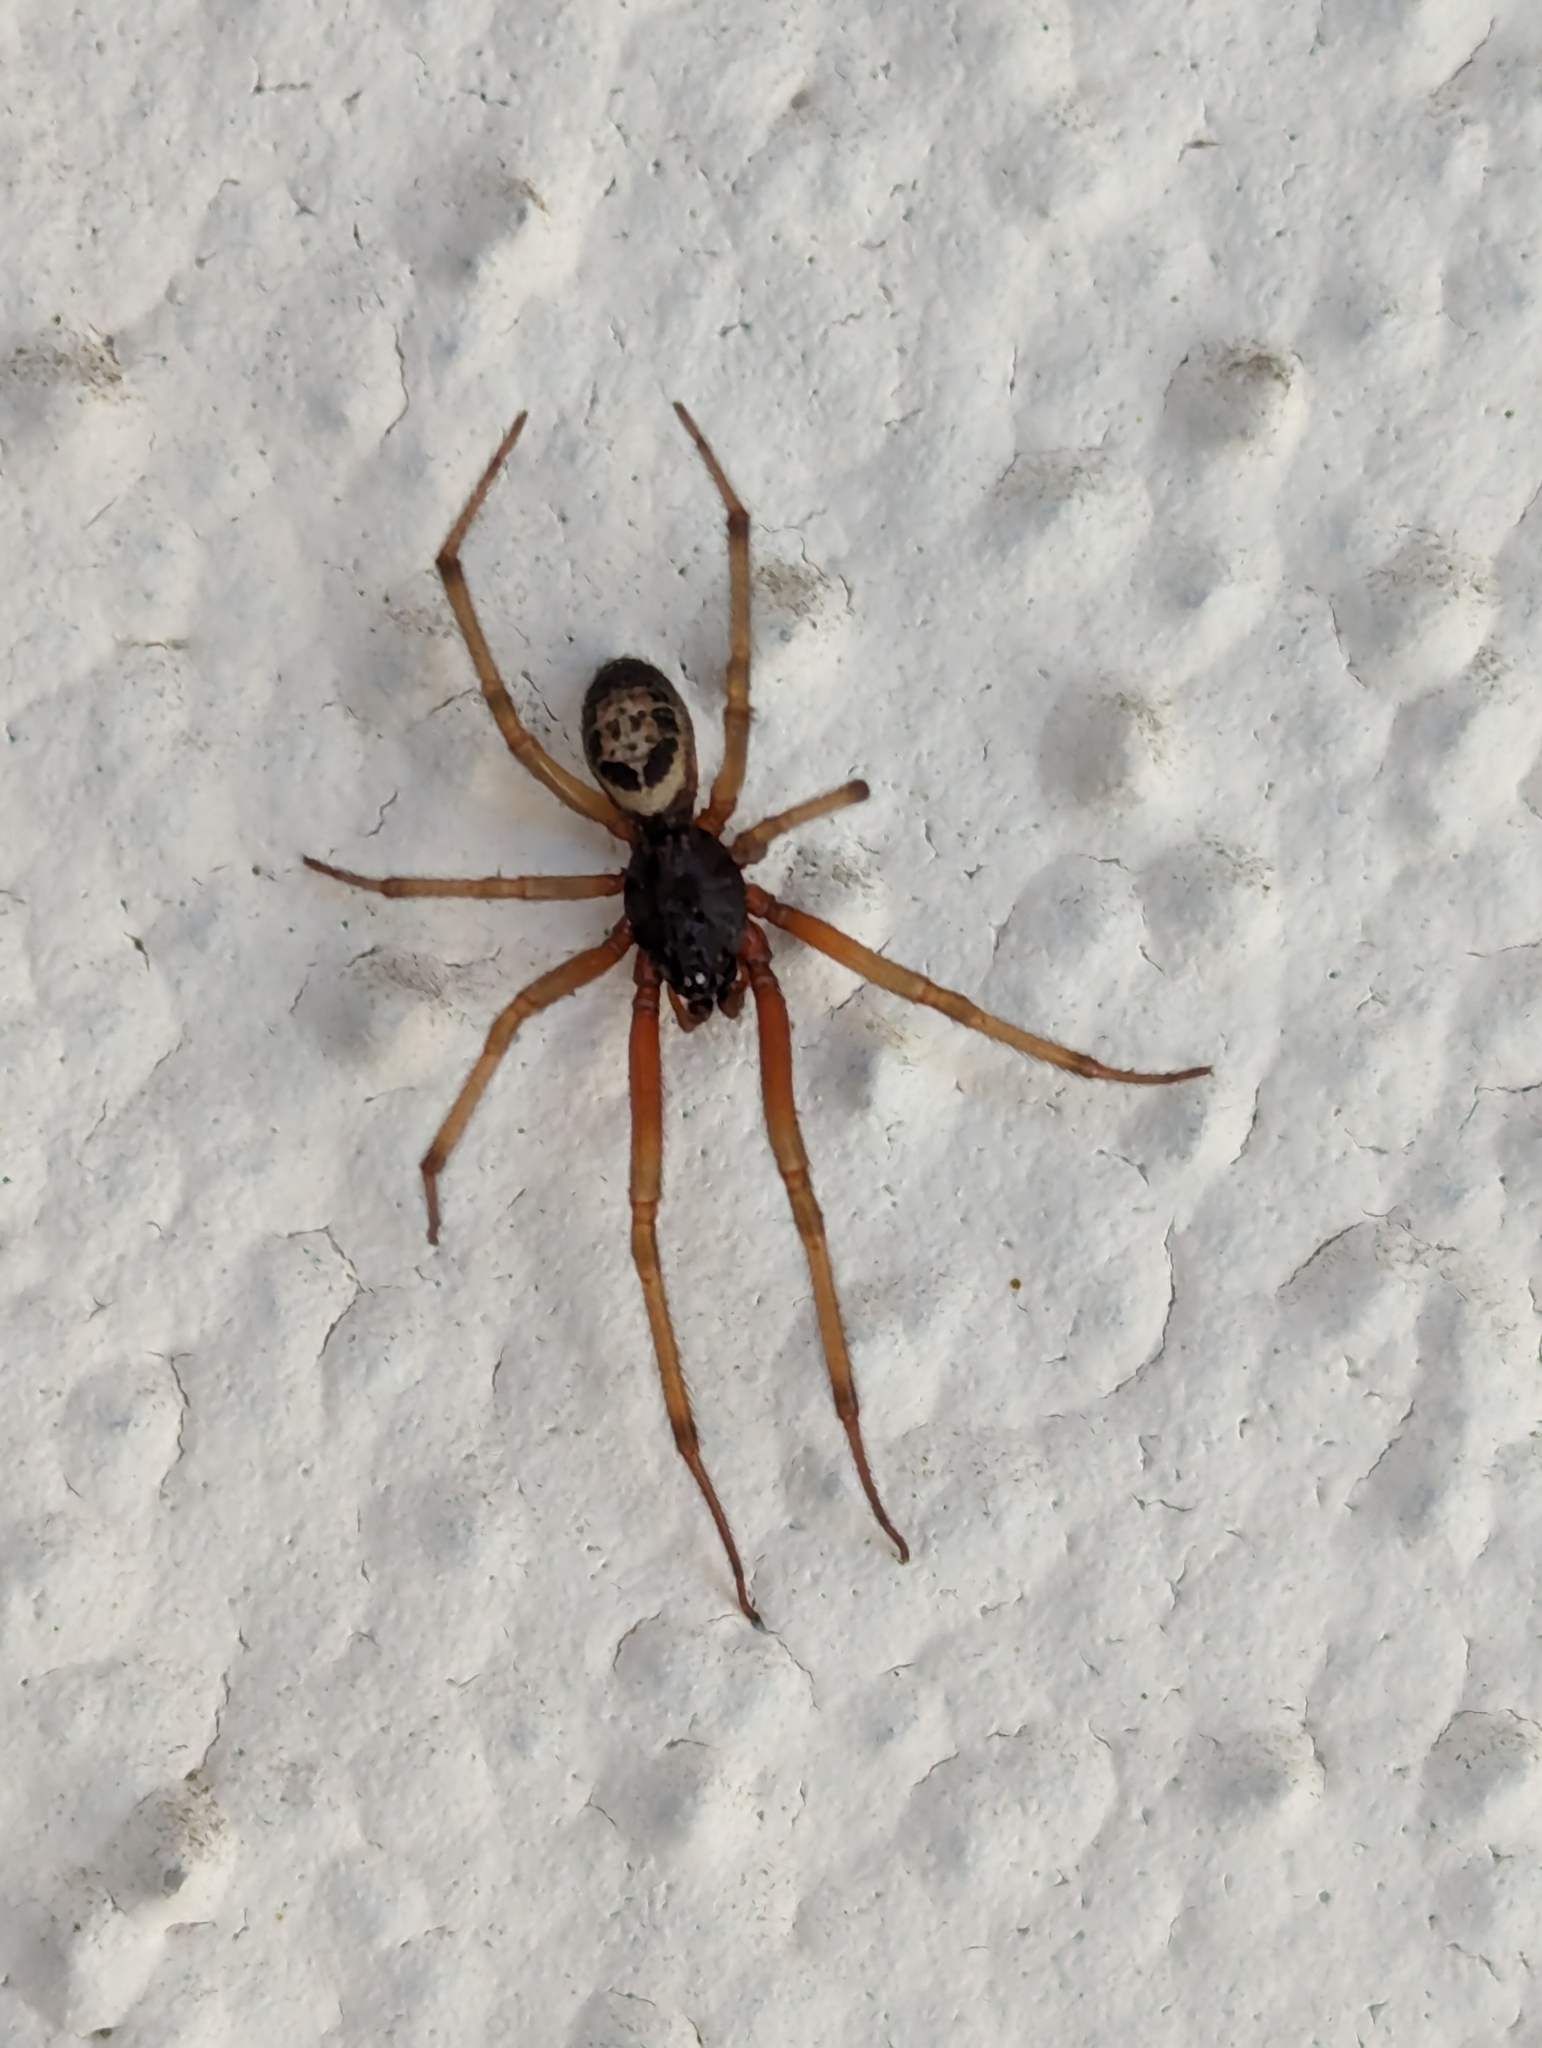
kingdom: Animalia
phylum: Arthropoda
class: Arachnida
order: Araneae
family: Theridiidae
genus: Steatoda
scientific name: Steatoda nobilis
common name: Cobweb weaver
